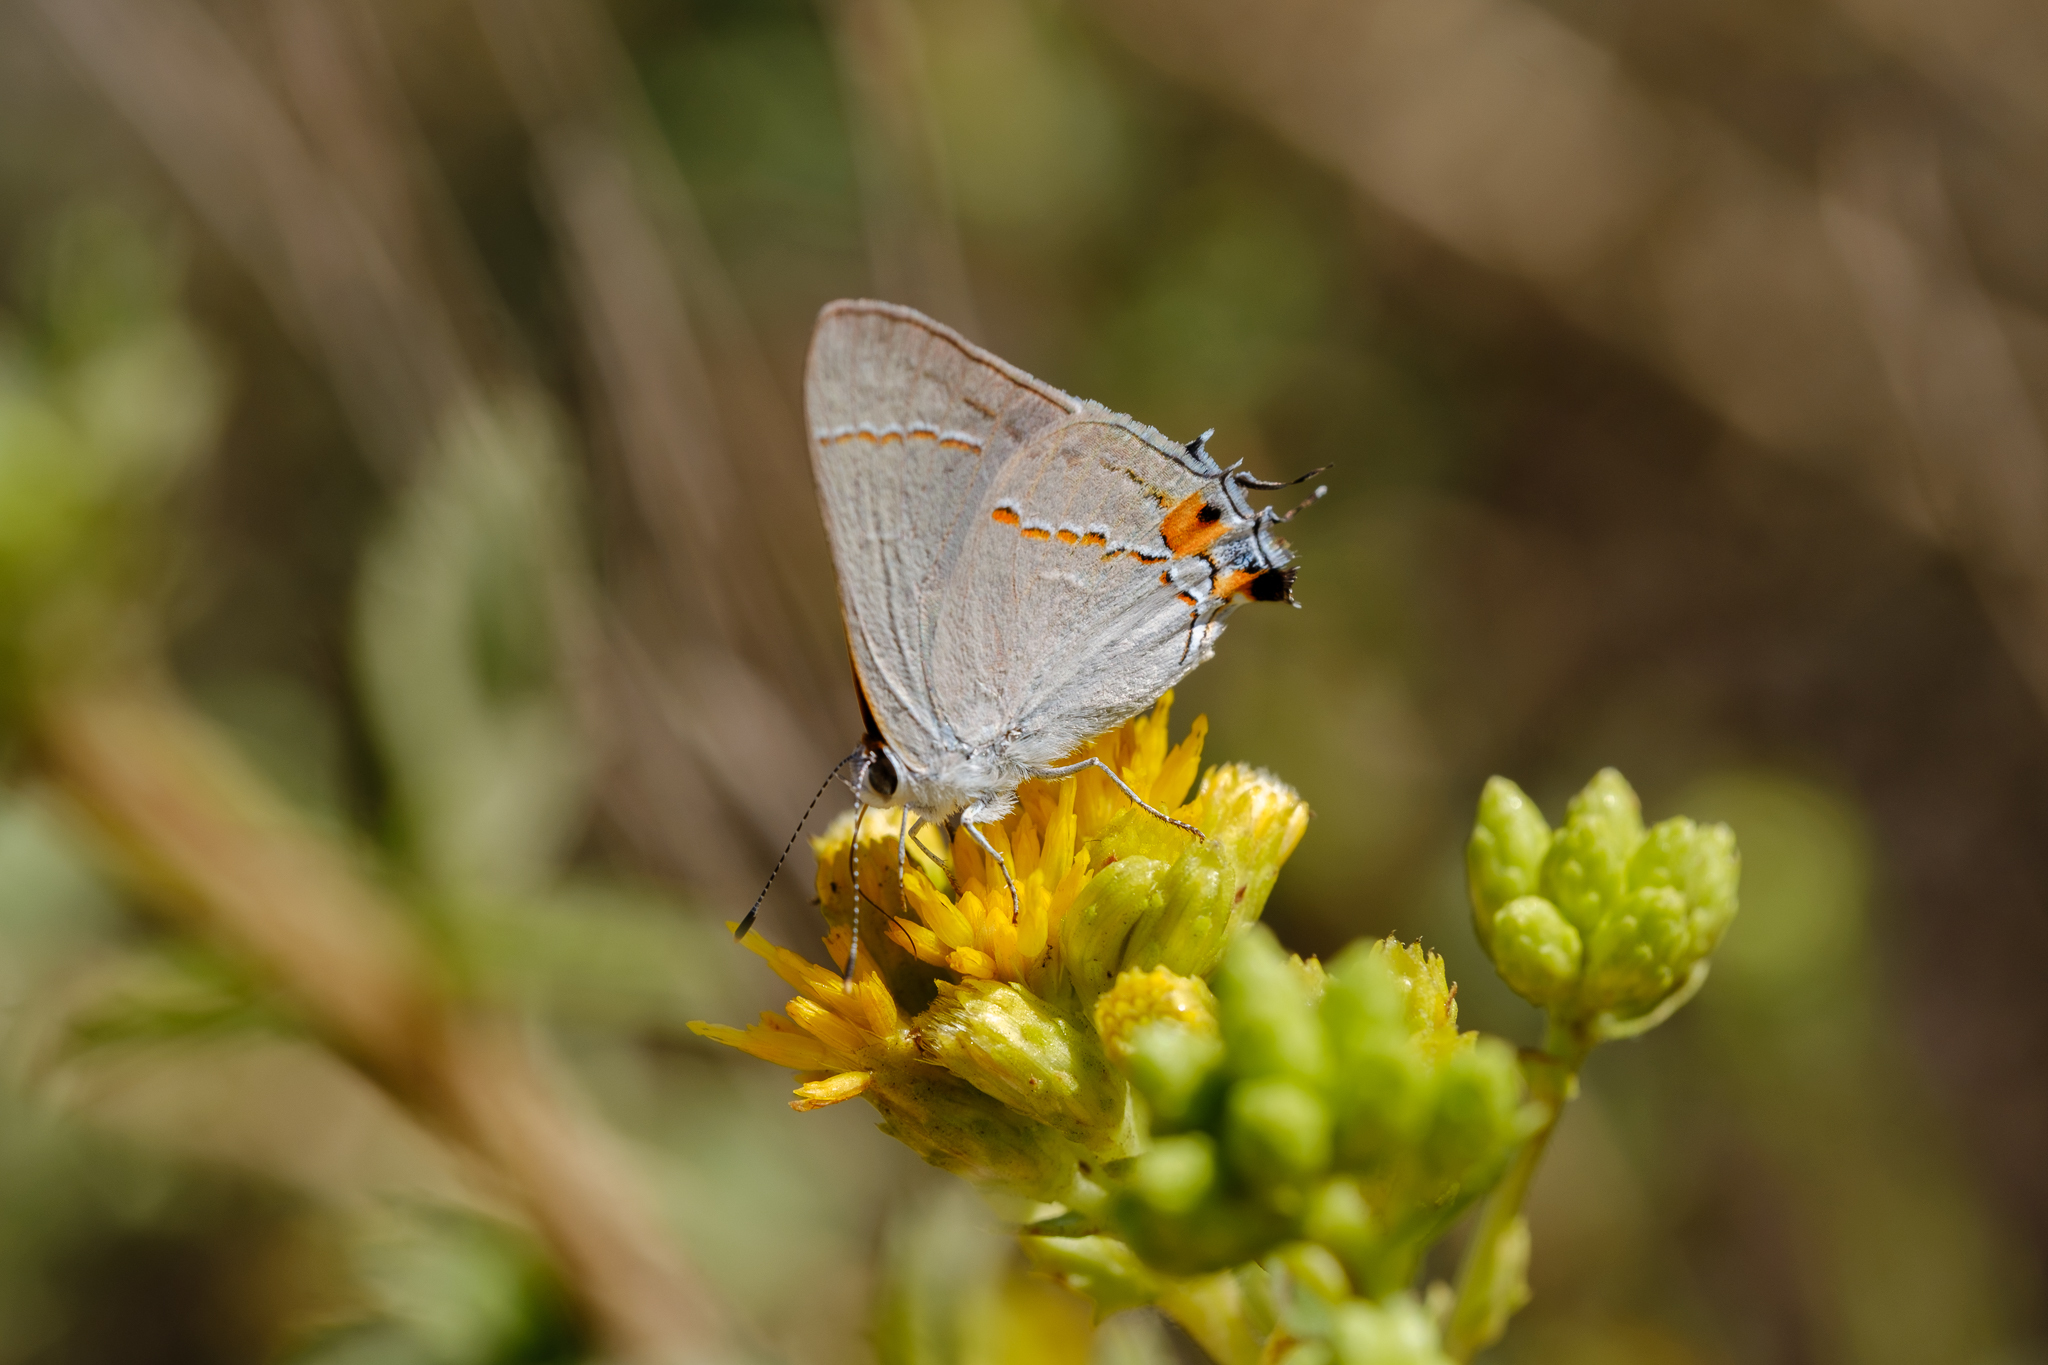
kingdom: Animalia
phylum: Arthropoda
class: Insecta
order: Lepidoptera
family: Lycaenidae
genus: Strymon
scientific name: Strymon melinus
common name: Gray hairstreak
